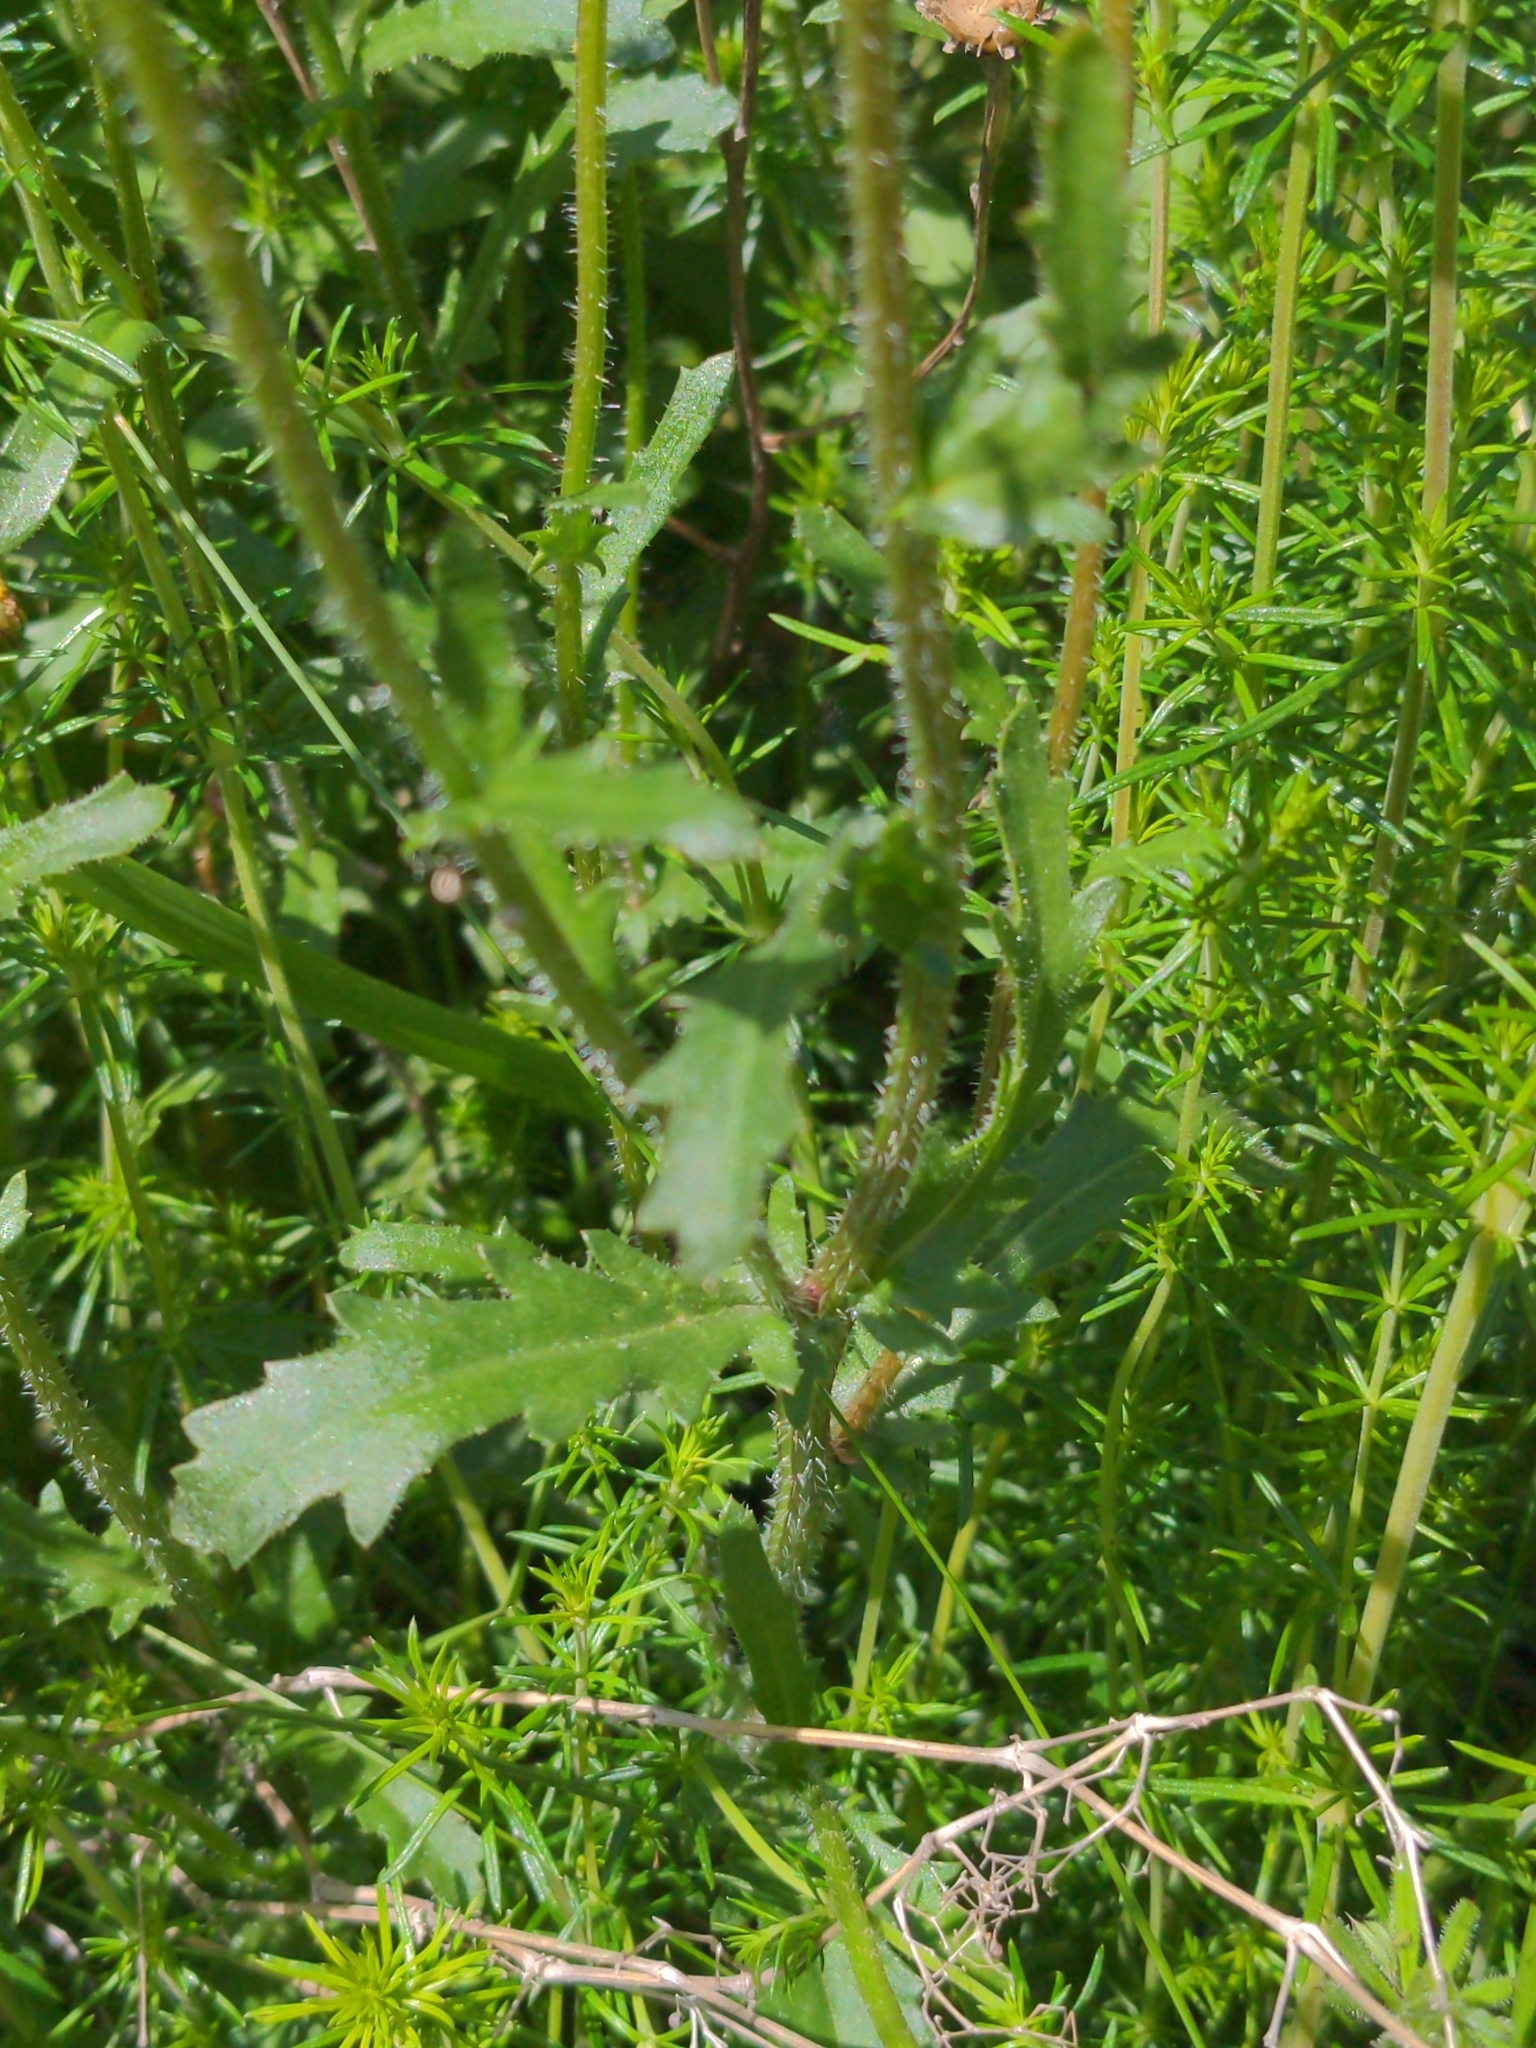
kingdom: Plantae
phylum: Tracheophyta
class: Magnoliopsida
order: Asterales
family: Asteraceae
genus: Leucanthemum
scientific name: Leucanthemum vulgare
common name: Oxeye daisy
